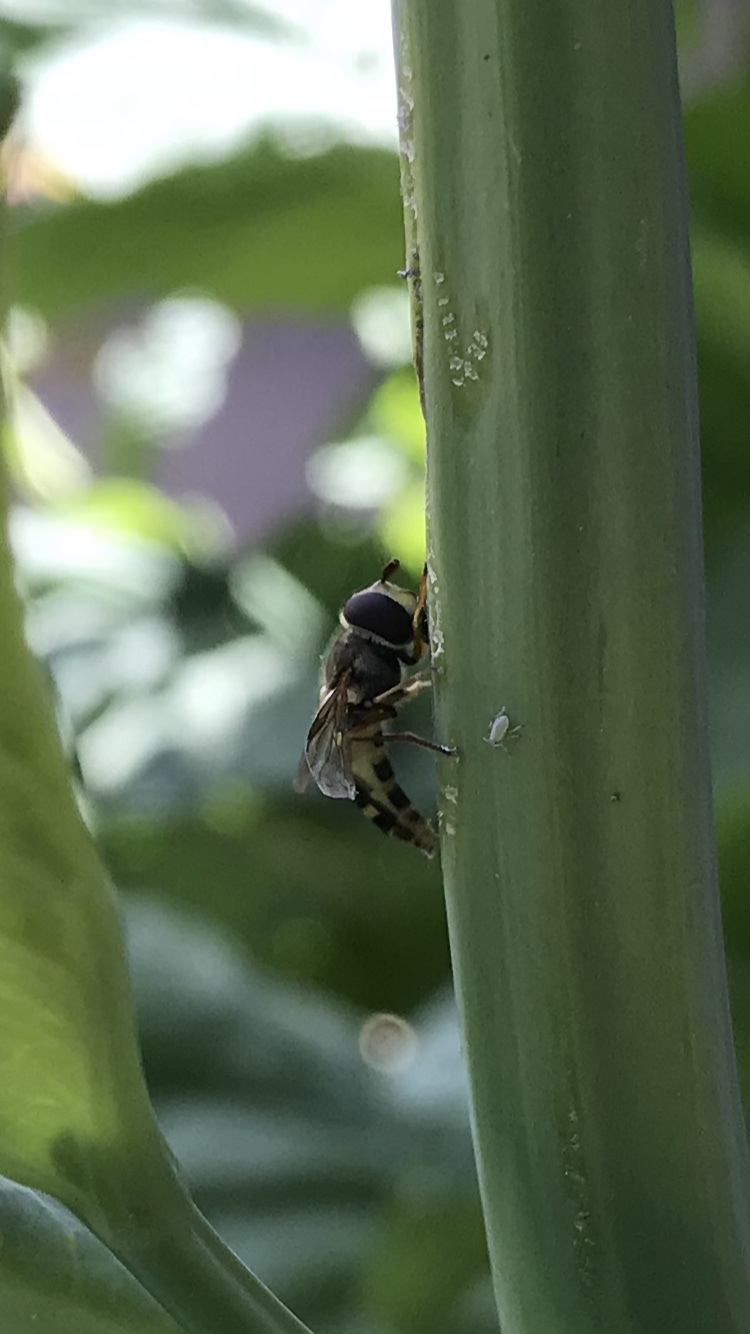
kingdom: Animalia
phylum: Arthropoda
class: Insecta
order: Diptera
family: Syrphidae
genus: Eupeodes
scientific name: Eupeodes
